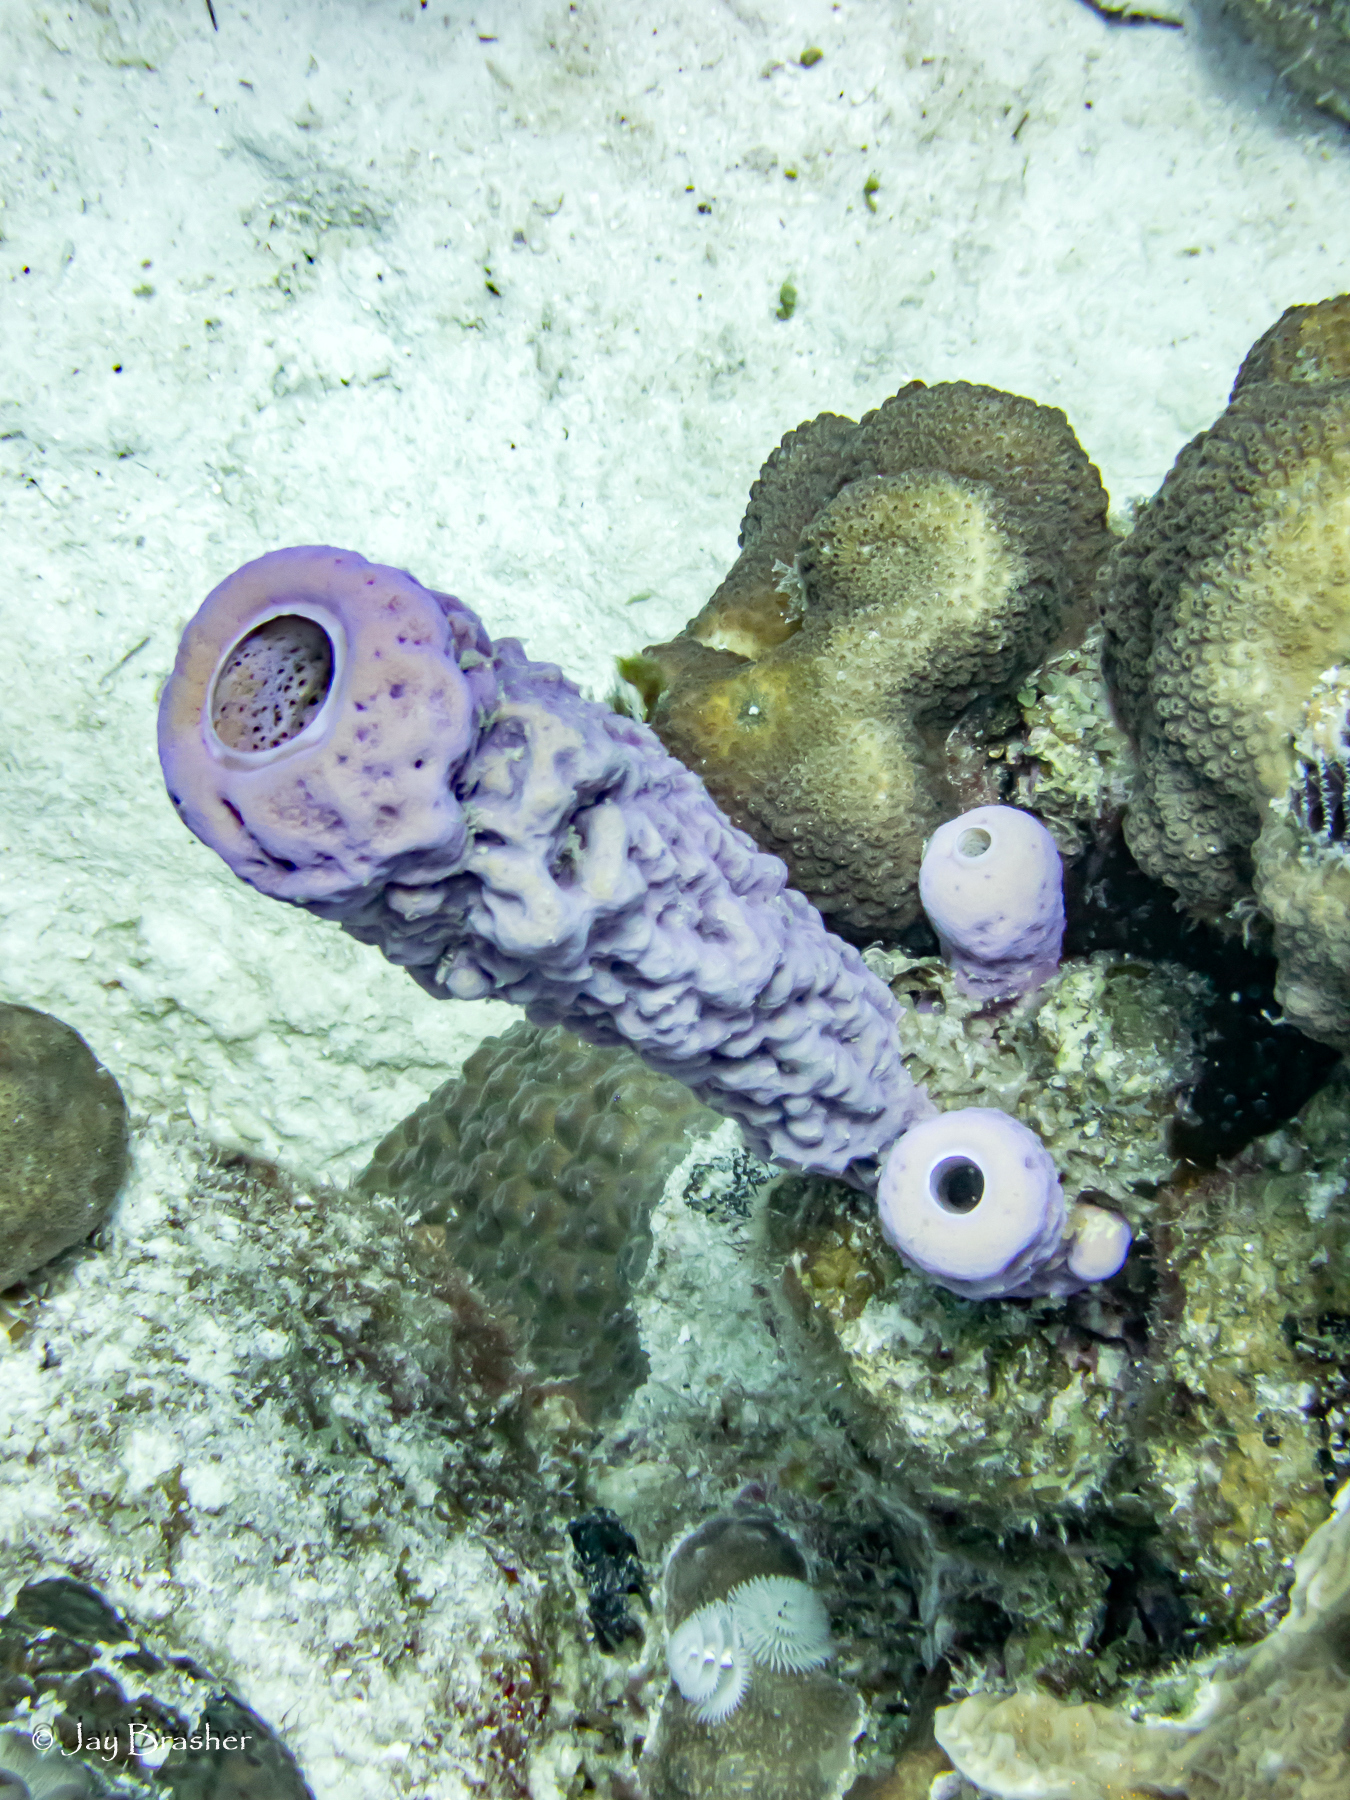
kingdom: Animalia
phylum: Porifera
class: Demospongiae
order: Verongiida
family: Aplysinidae
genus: Aplysina
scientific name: Aplysina archeri
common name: Stove-pipe sponge
